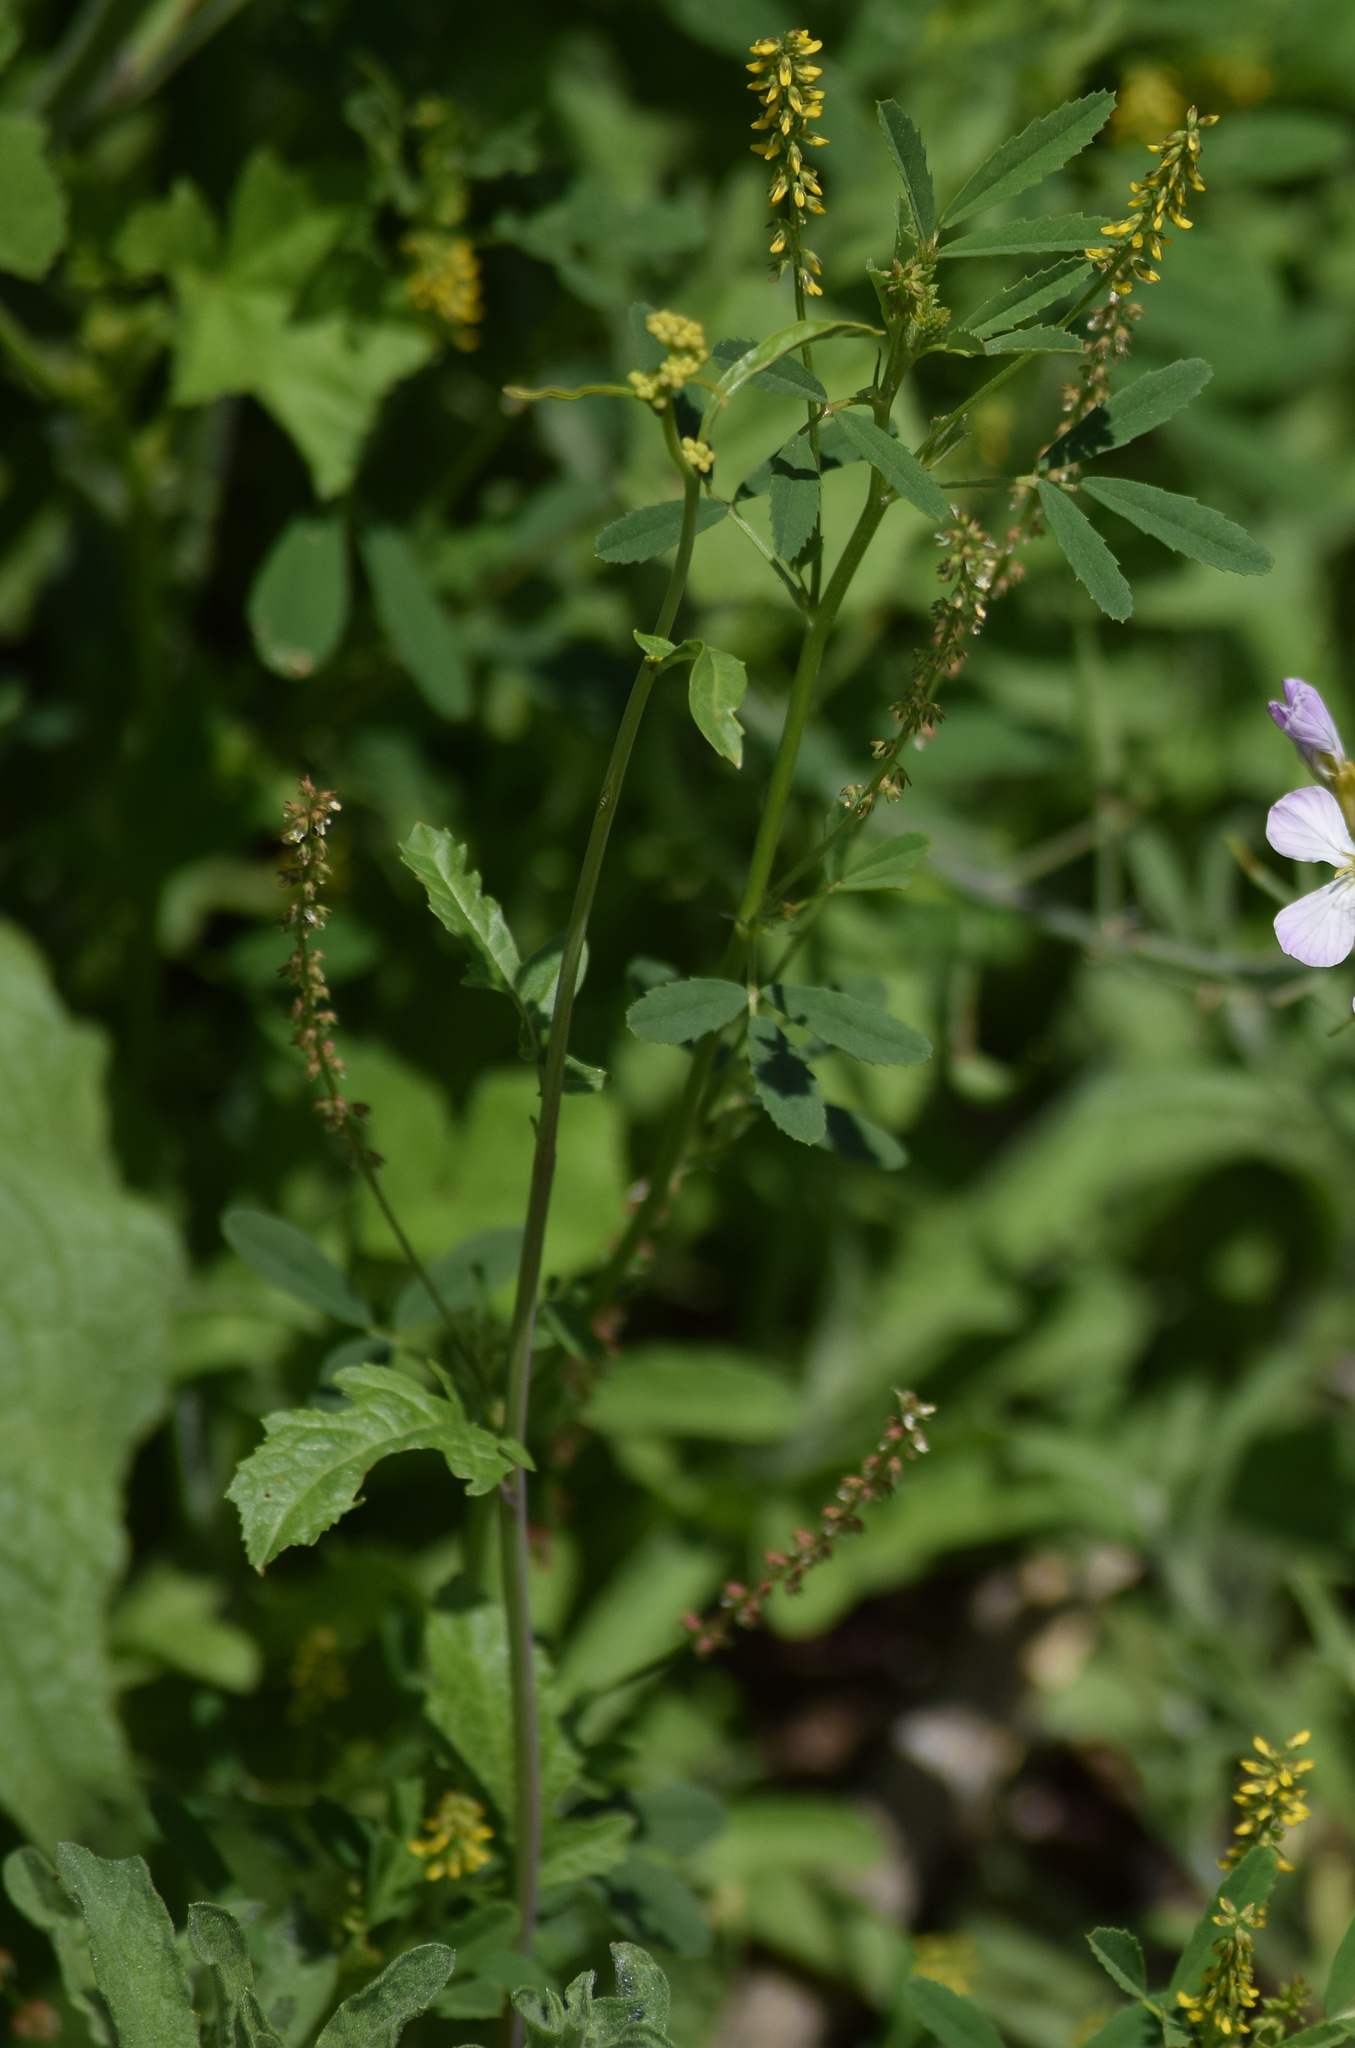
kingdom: Plantae
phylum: Tracheophyta
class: Magnoliopsida
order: Fabales
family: Fabaceae
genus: Melilotus
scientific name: Melilotus indicus
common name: Small melilot
